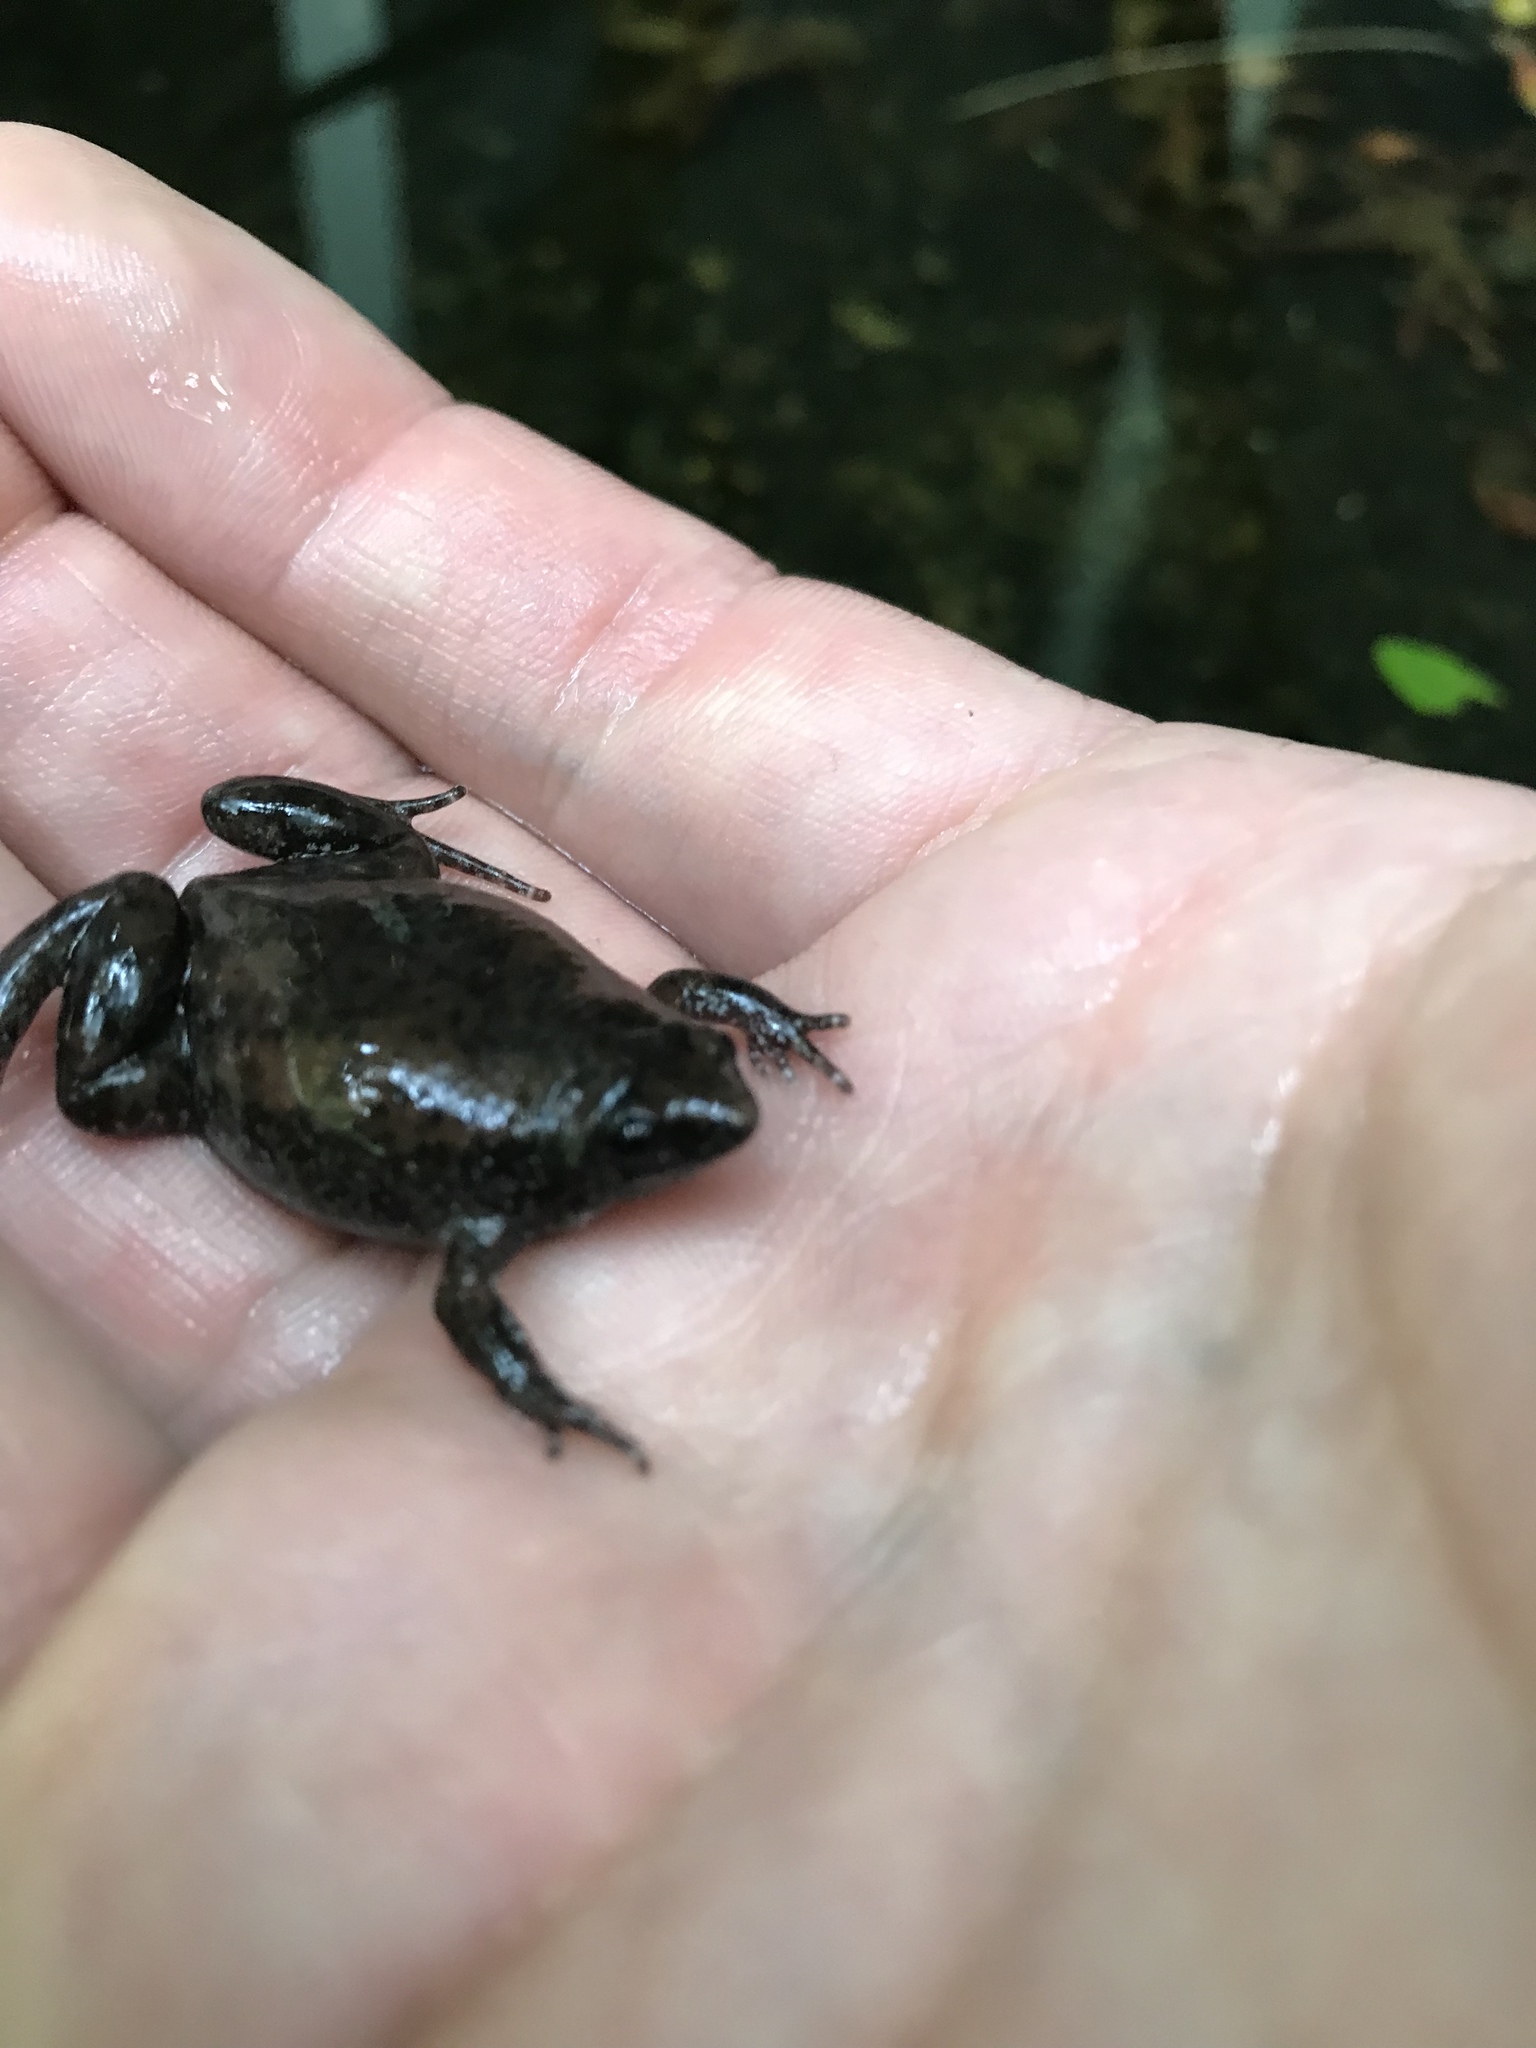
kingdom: Animalia
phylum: Chordata
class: Amphibia
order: Anura
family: Microhylidae
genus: Gastrophryne
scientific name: Gastrophryne carolinensis
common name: Eastern narrowmouth toad
